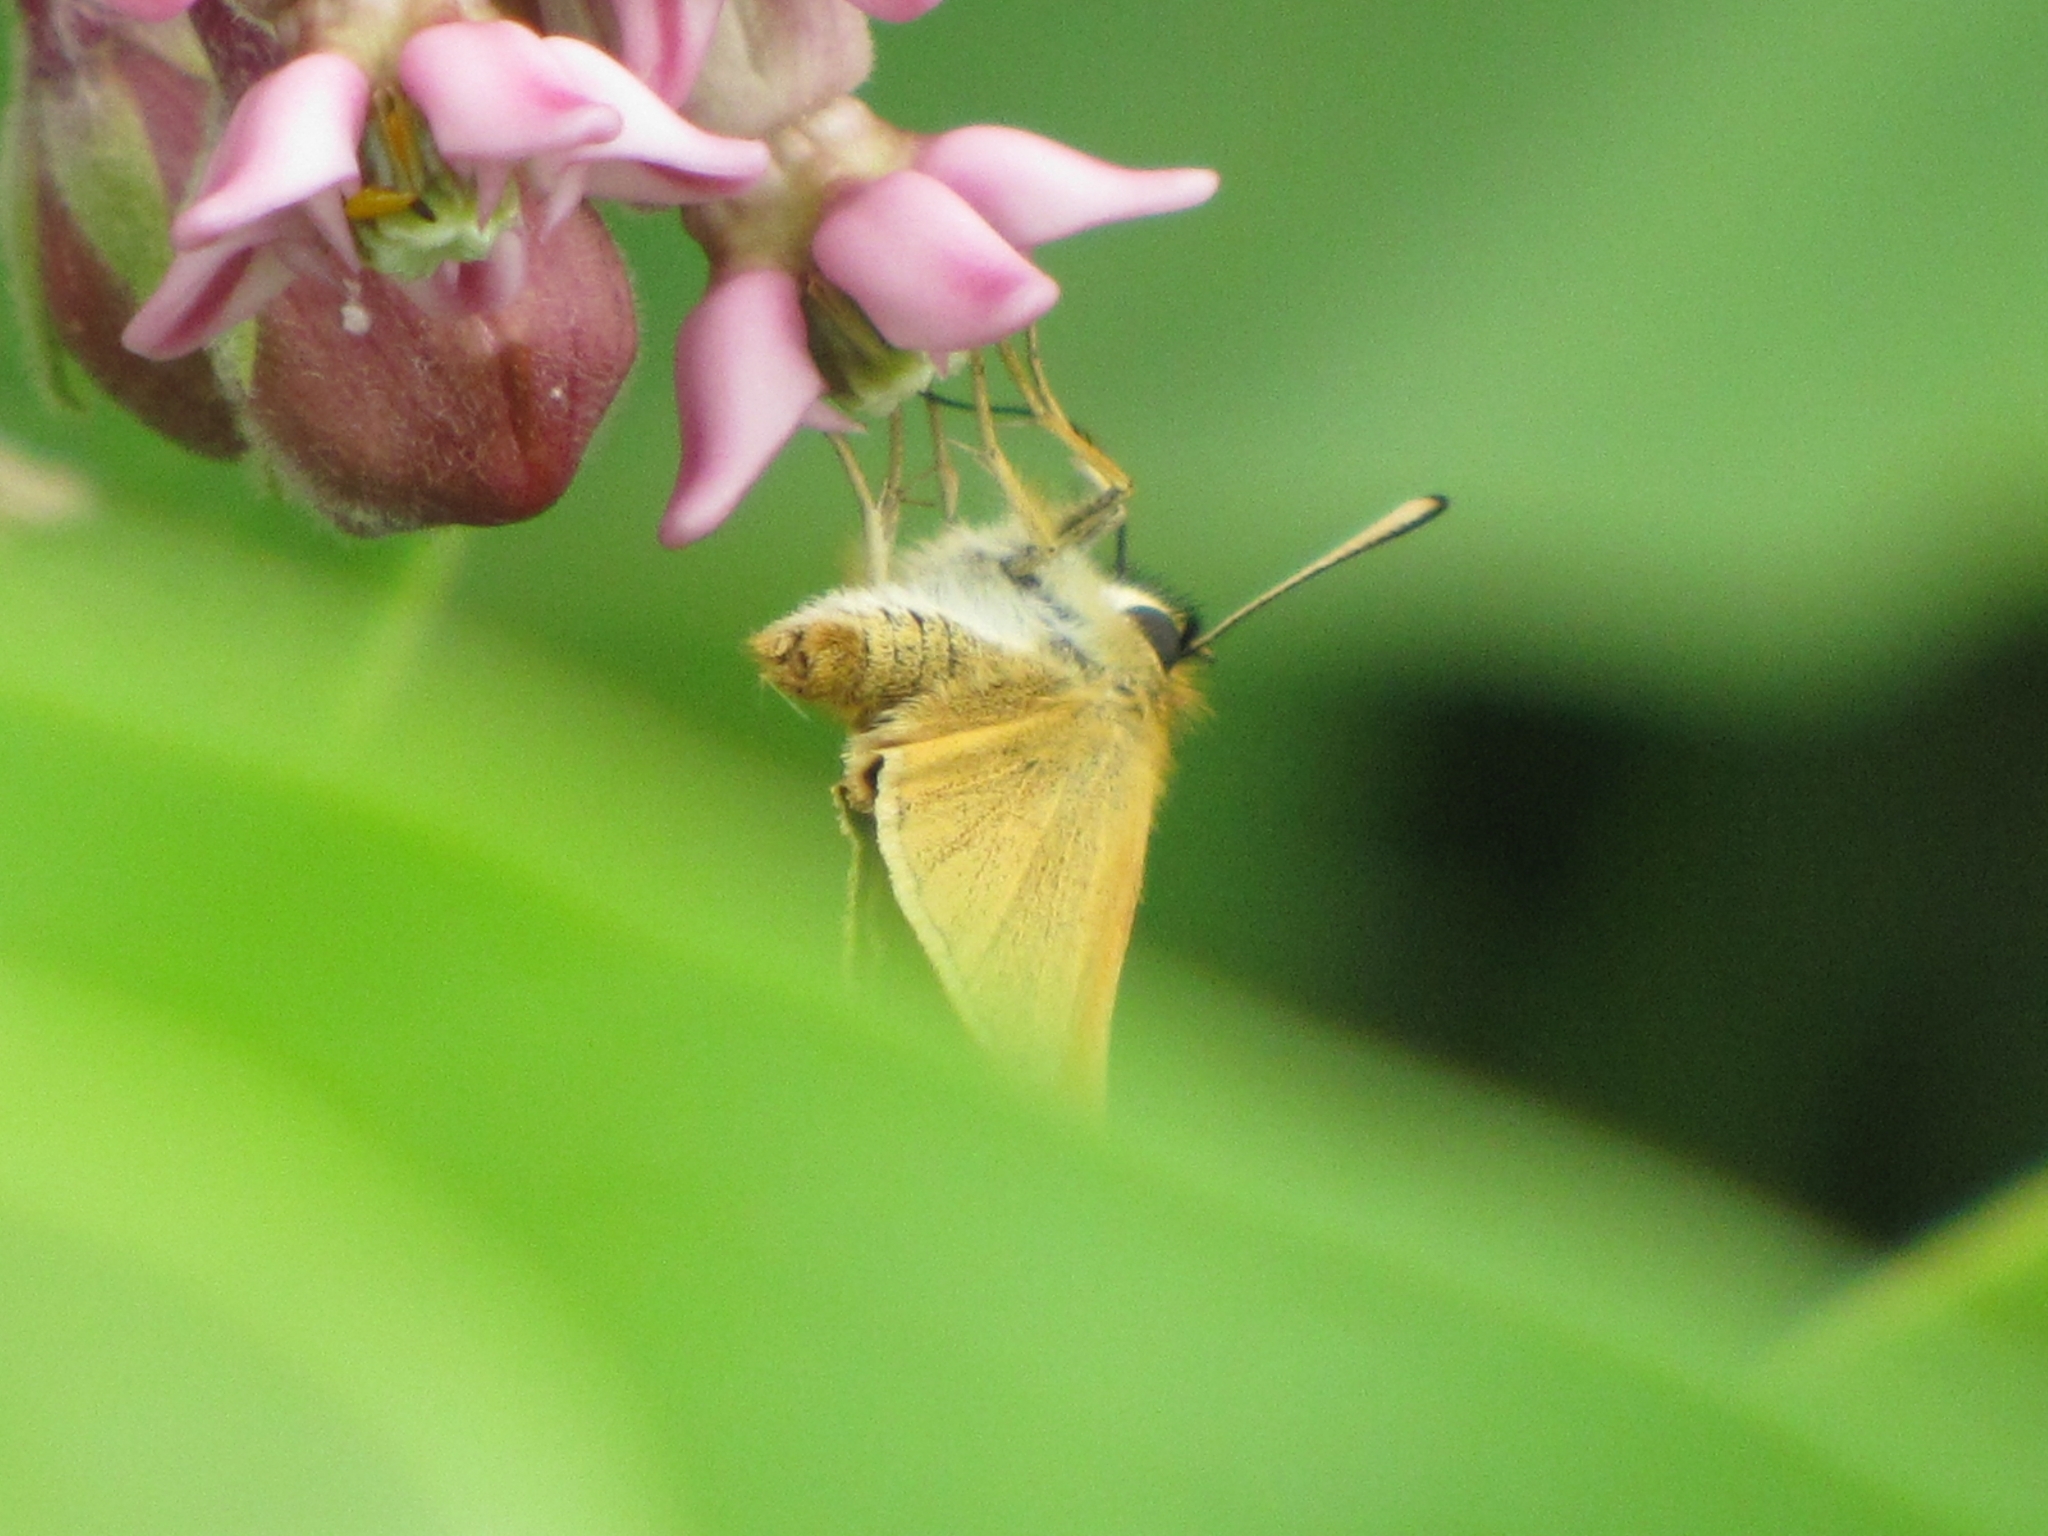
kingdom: Animalia
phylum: Arthropoda
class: Insecta
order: Lepidoptera
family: Hesperiidae
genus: Thymelicus
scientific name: Thymelicus lineola
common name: Essex skipper
